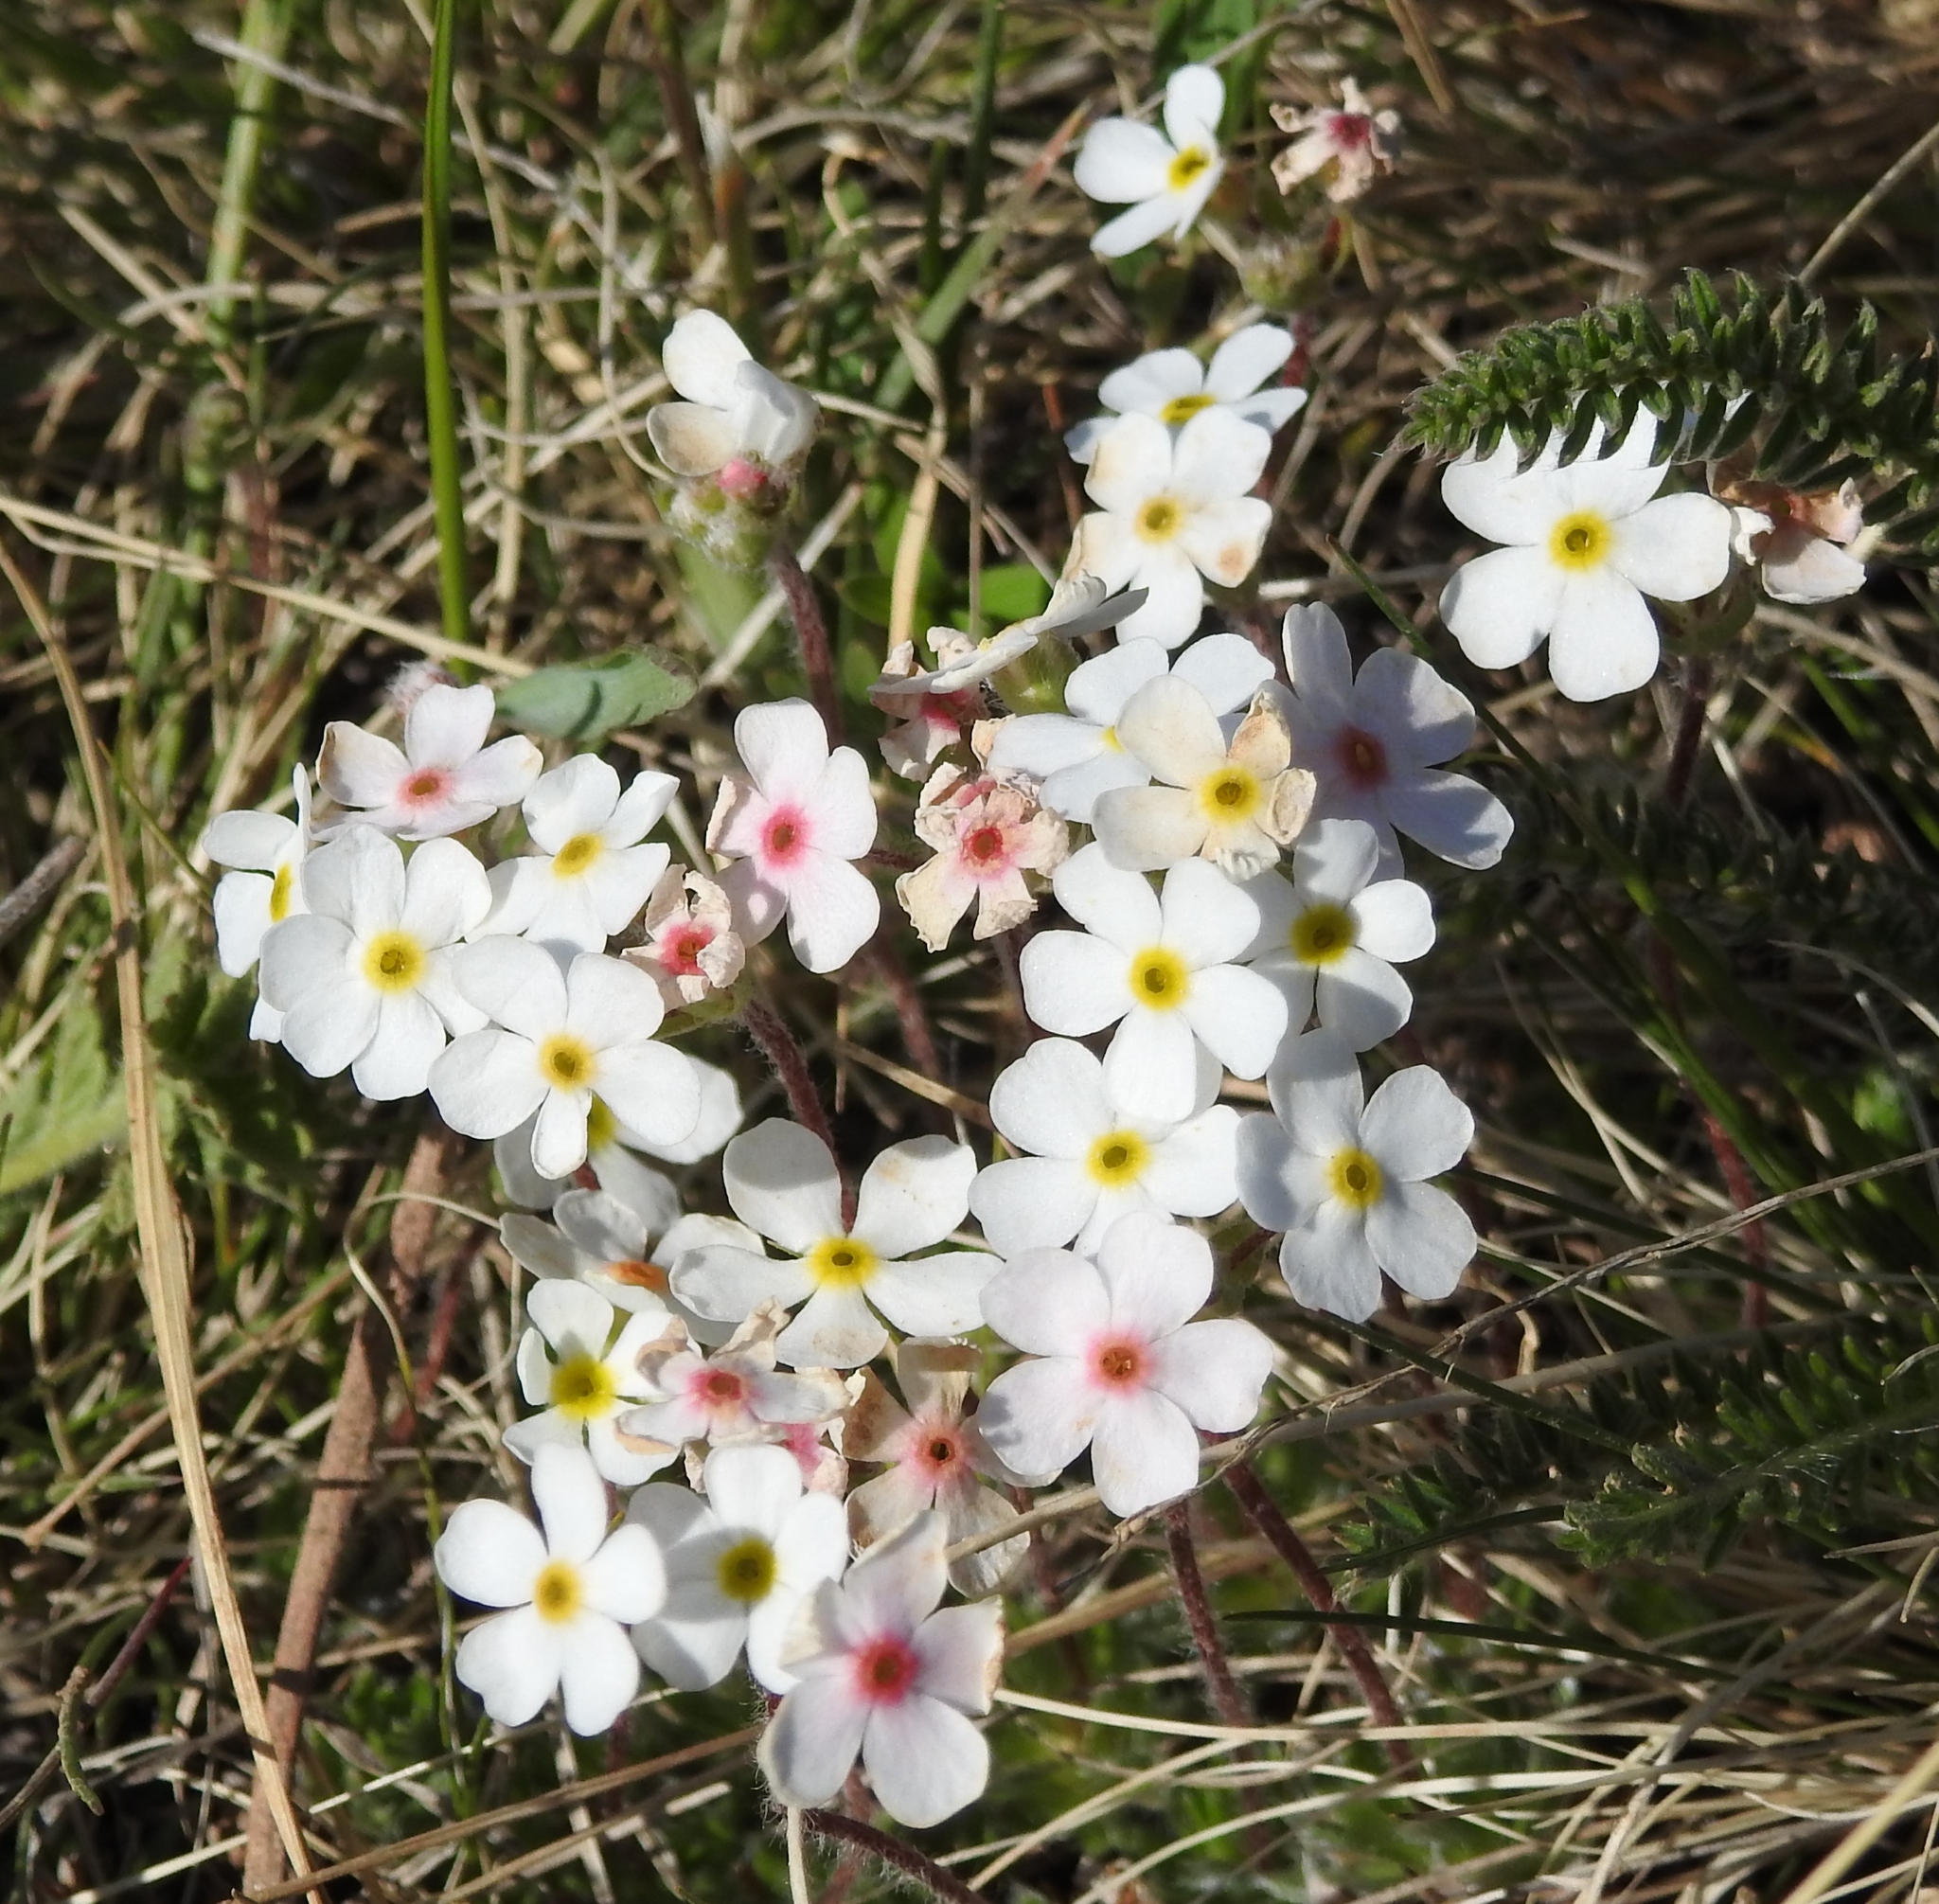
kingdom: Plantae
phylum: Tracheophyta
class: Magnoliopsida
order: Ericales
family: Primulaceae
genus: Androsace
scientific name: Androsace incana
